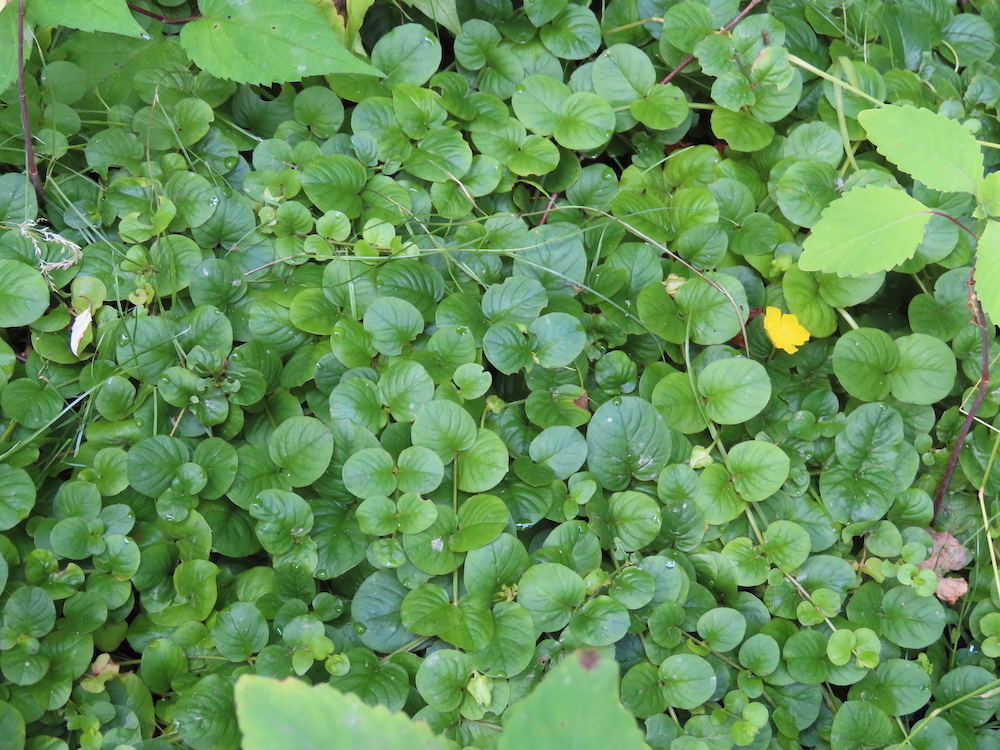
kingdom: Plantae
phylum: Tracheophyta
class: Magnoliopsida
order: Ericales
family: Primulaceae
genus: Lysimachia
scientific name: Lysimachia nummularia
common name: Moneywort
